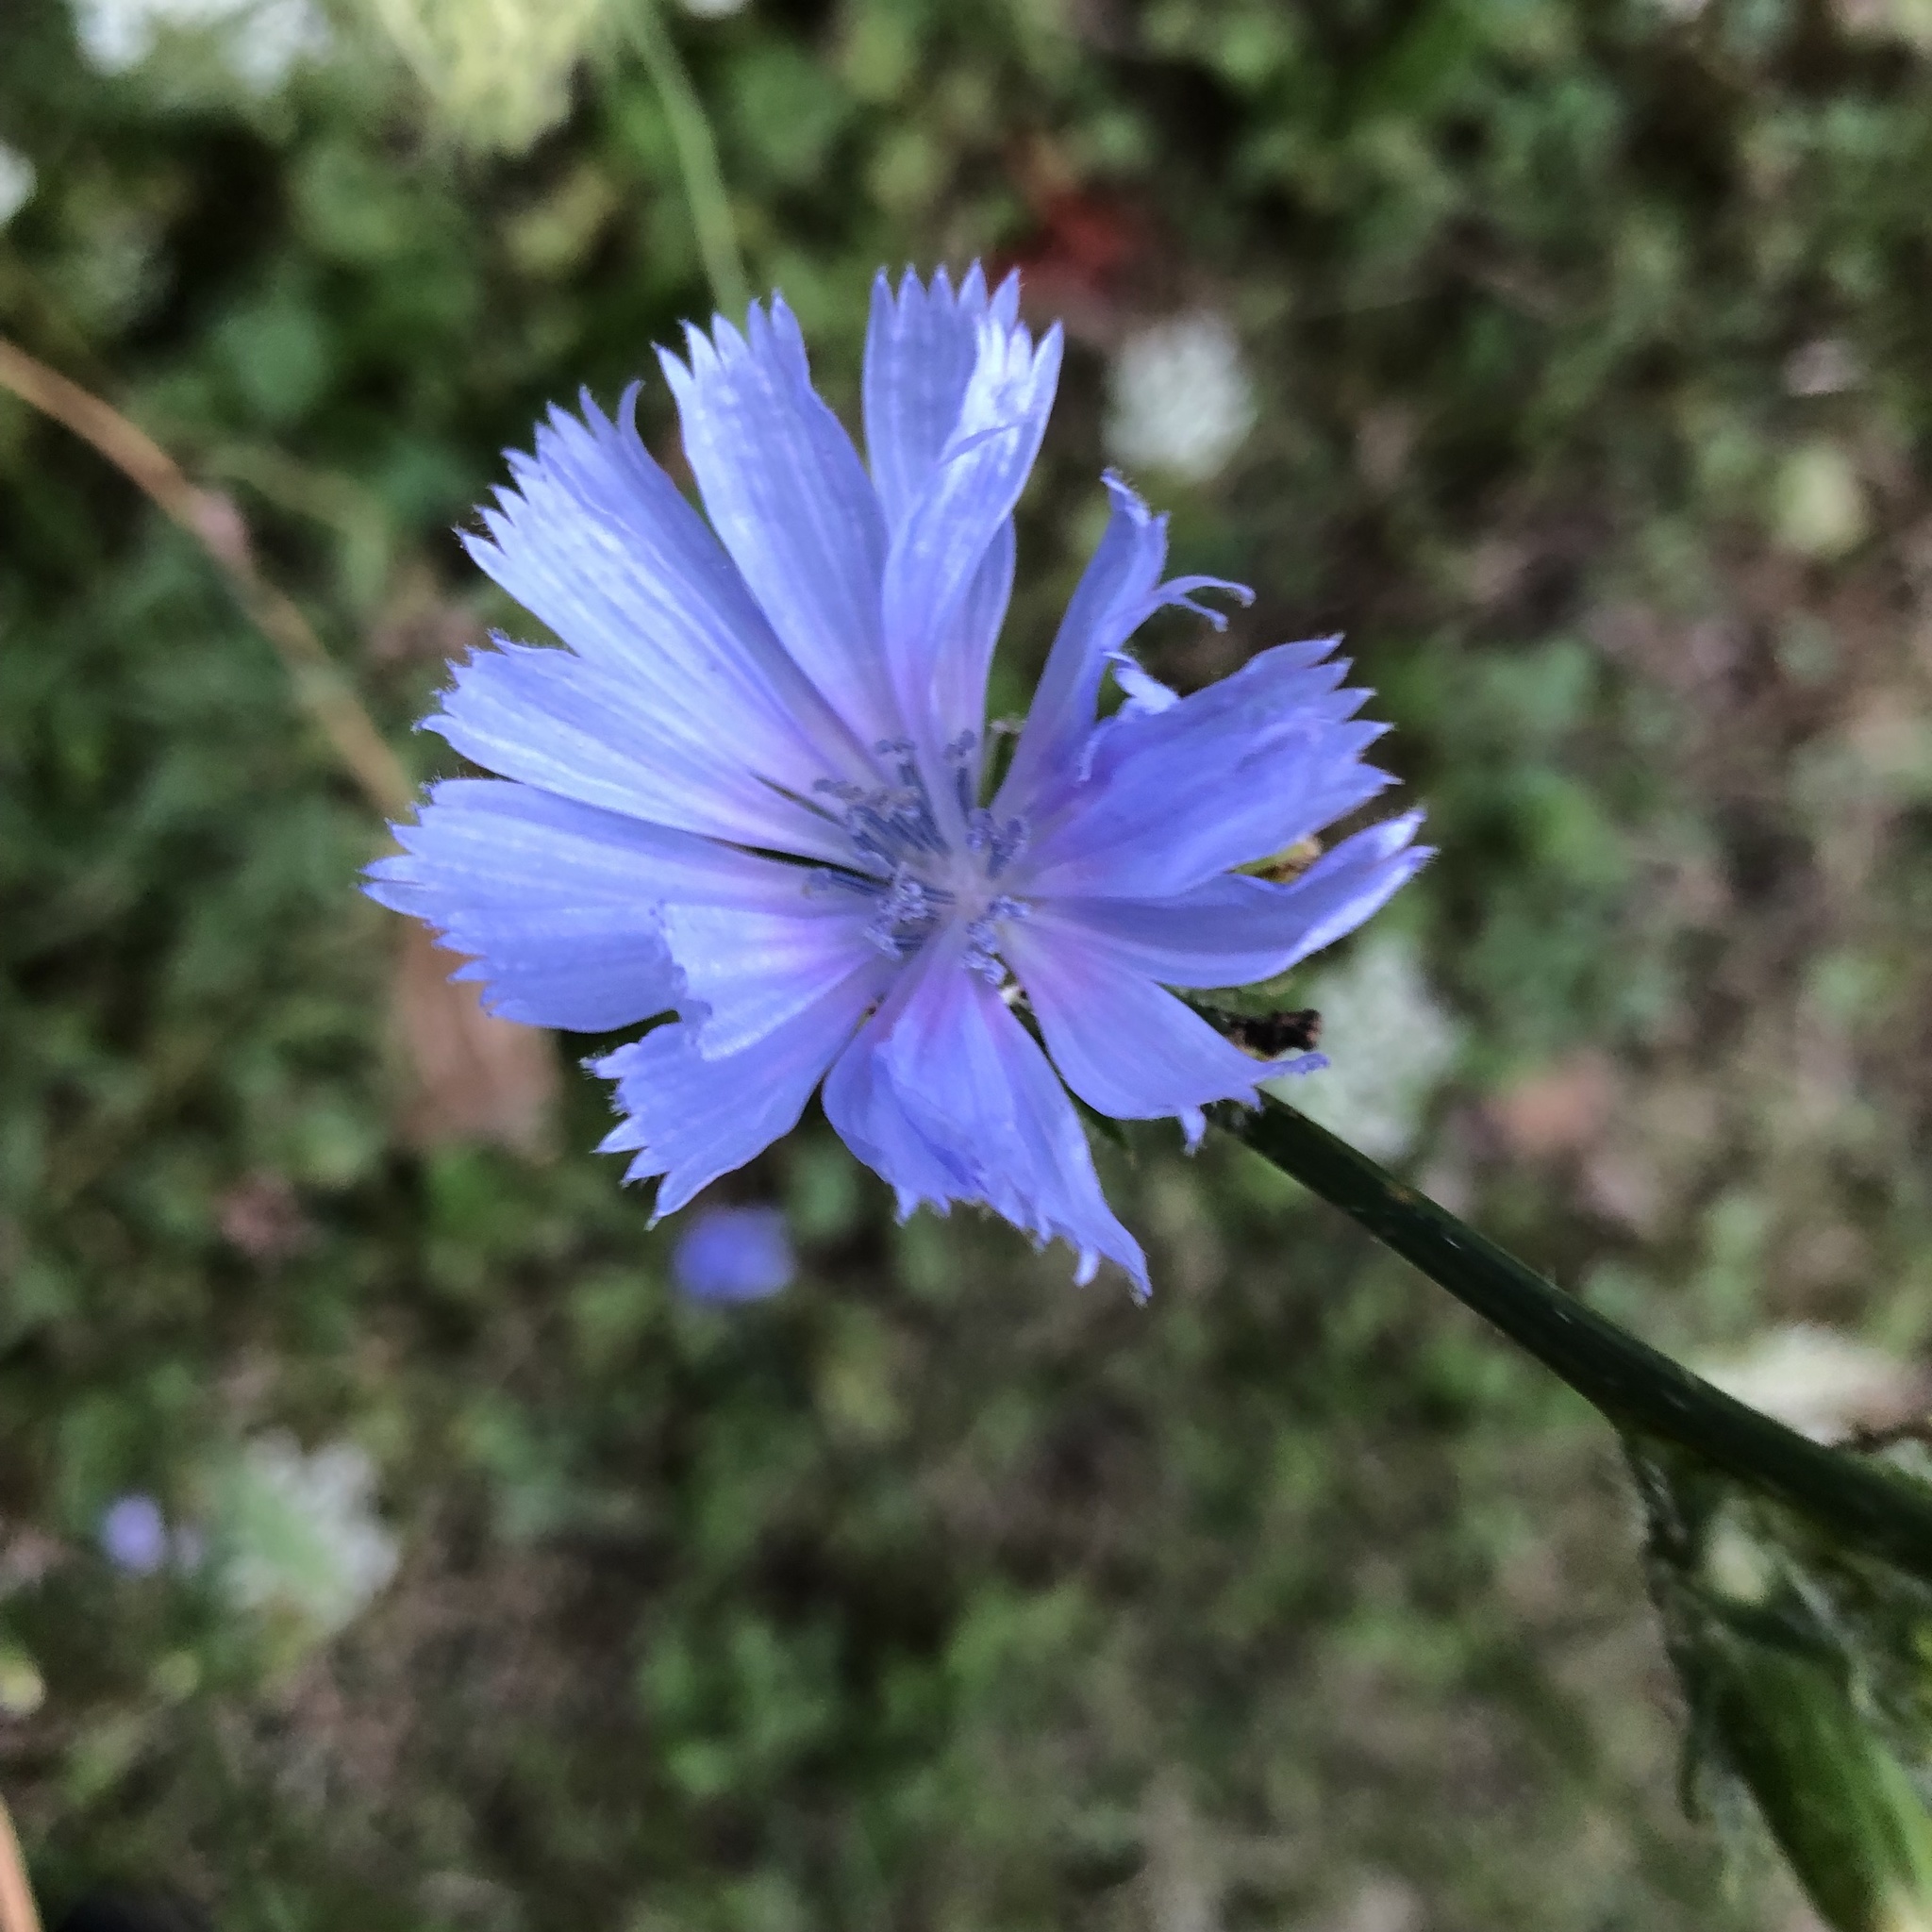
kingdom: Plantae
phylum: Tracheophyta
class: Magnoliopsida
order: Asterales
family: Asteraceae
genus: Cichorium
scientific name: Cichorium intybus
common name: Chicory
